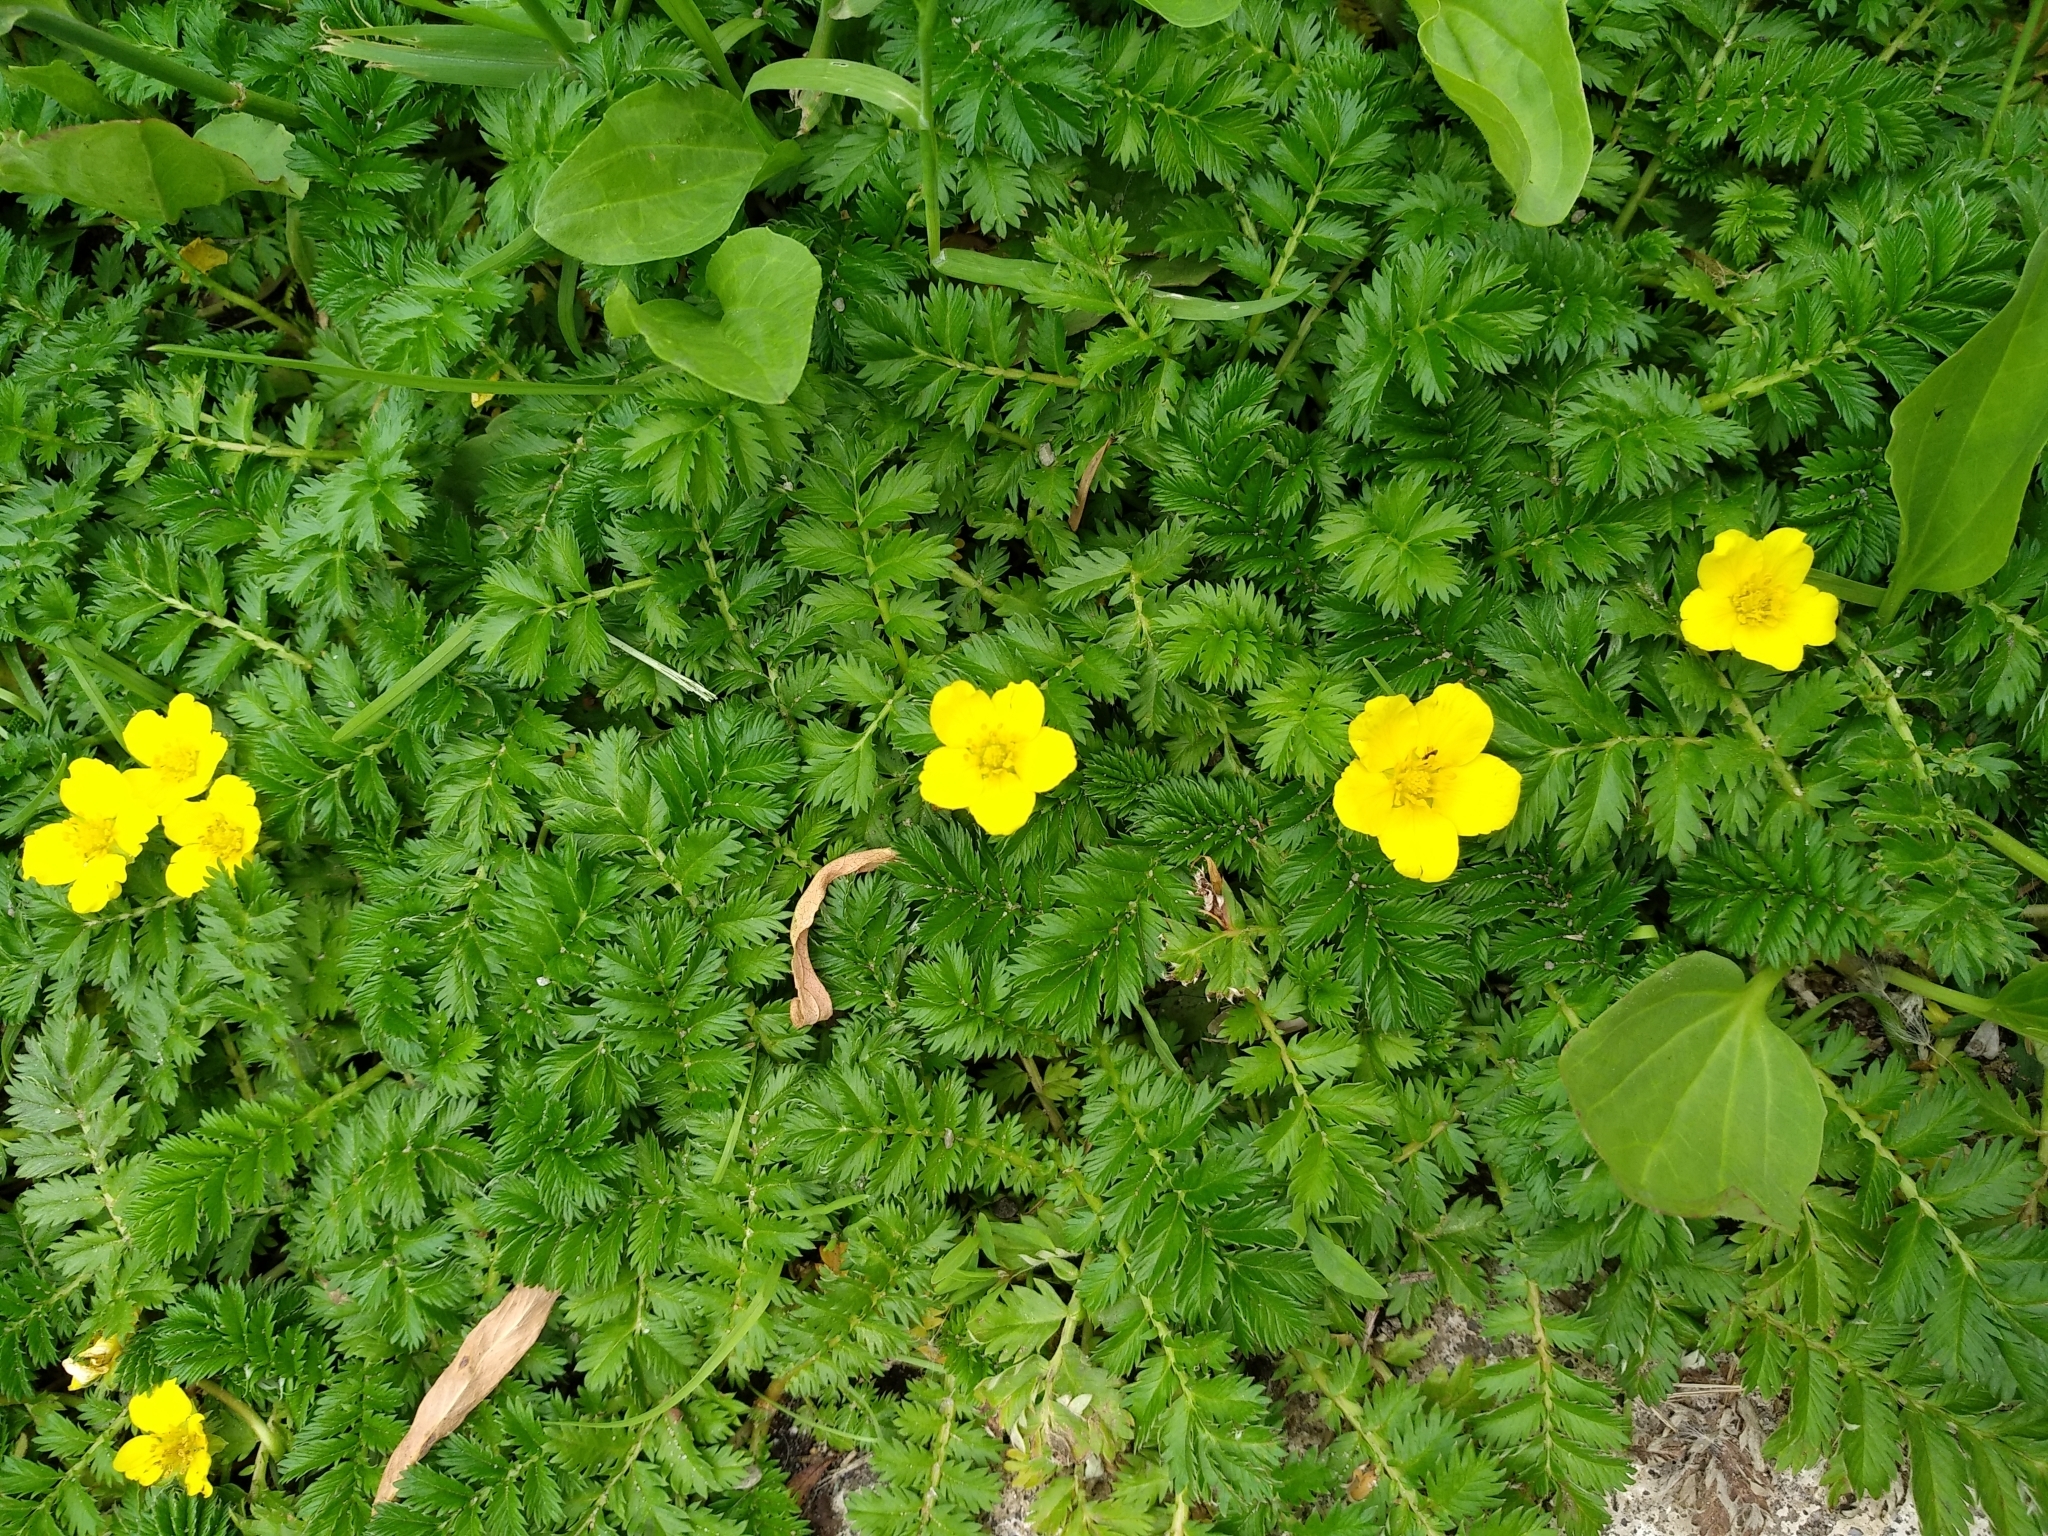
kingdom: Plantae
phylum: Tracheophyta
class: Magnoliopsida
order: Rosales
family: Rosaceae
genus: Argentina
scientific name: Argentina anserina
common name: Common silverweed
